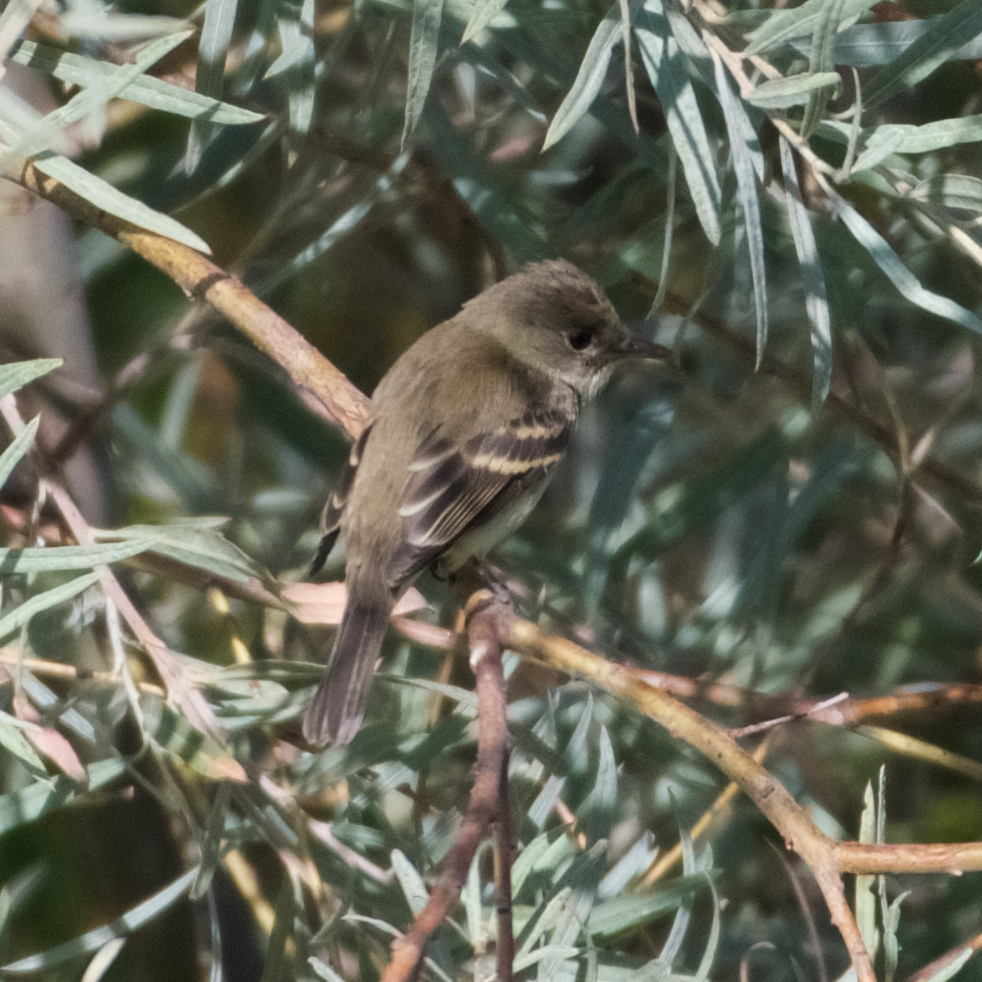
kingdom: Animalia
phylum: Chordata
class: Aves
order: Passeriformes
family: Tyrannidae
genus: Empidonax
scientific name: Empidonax traillii
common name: Willow flycatcher
